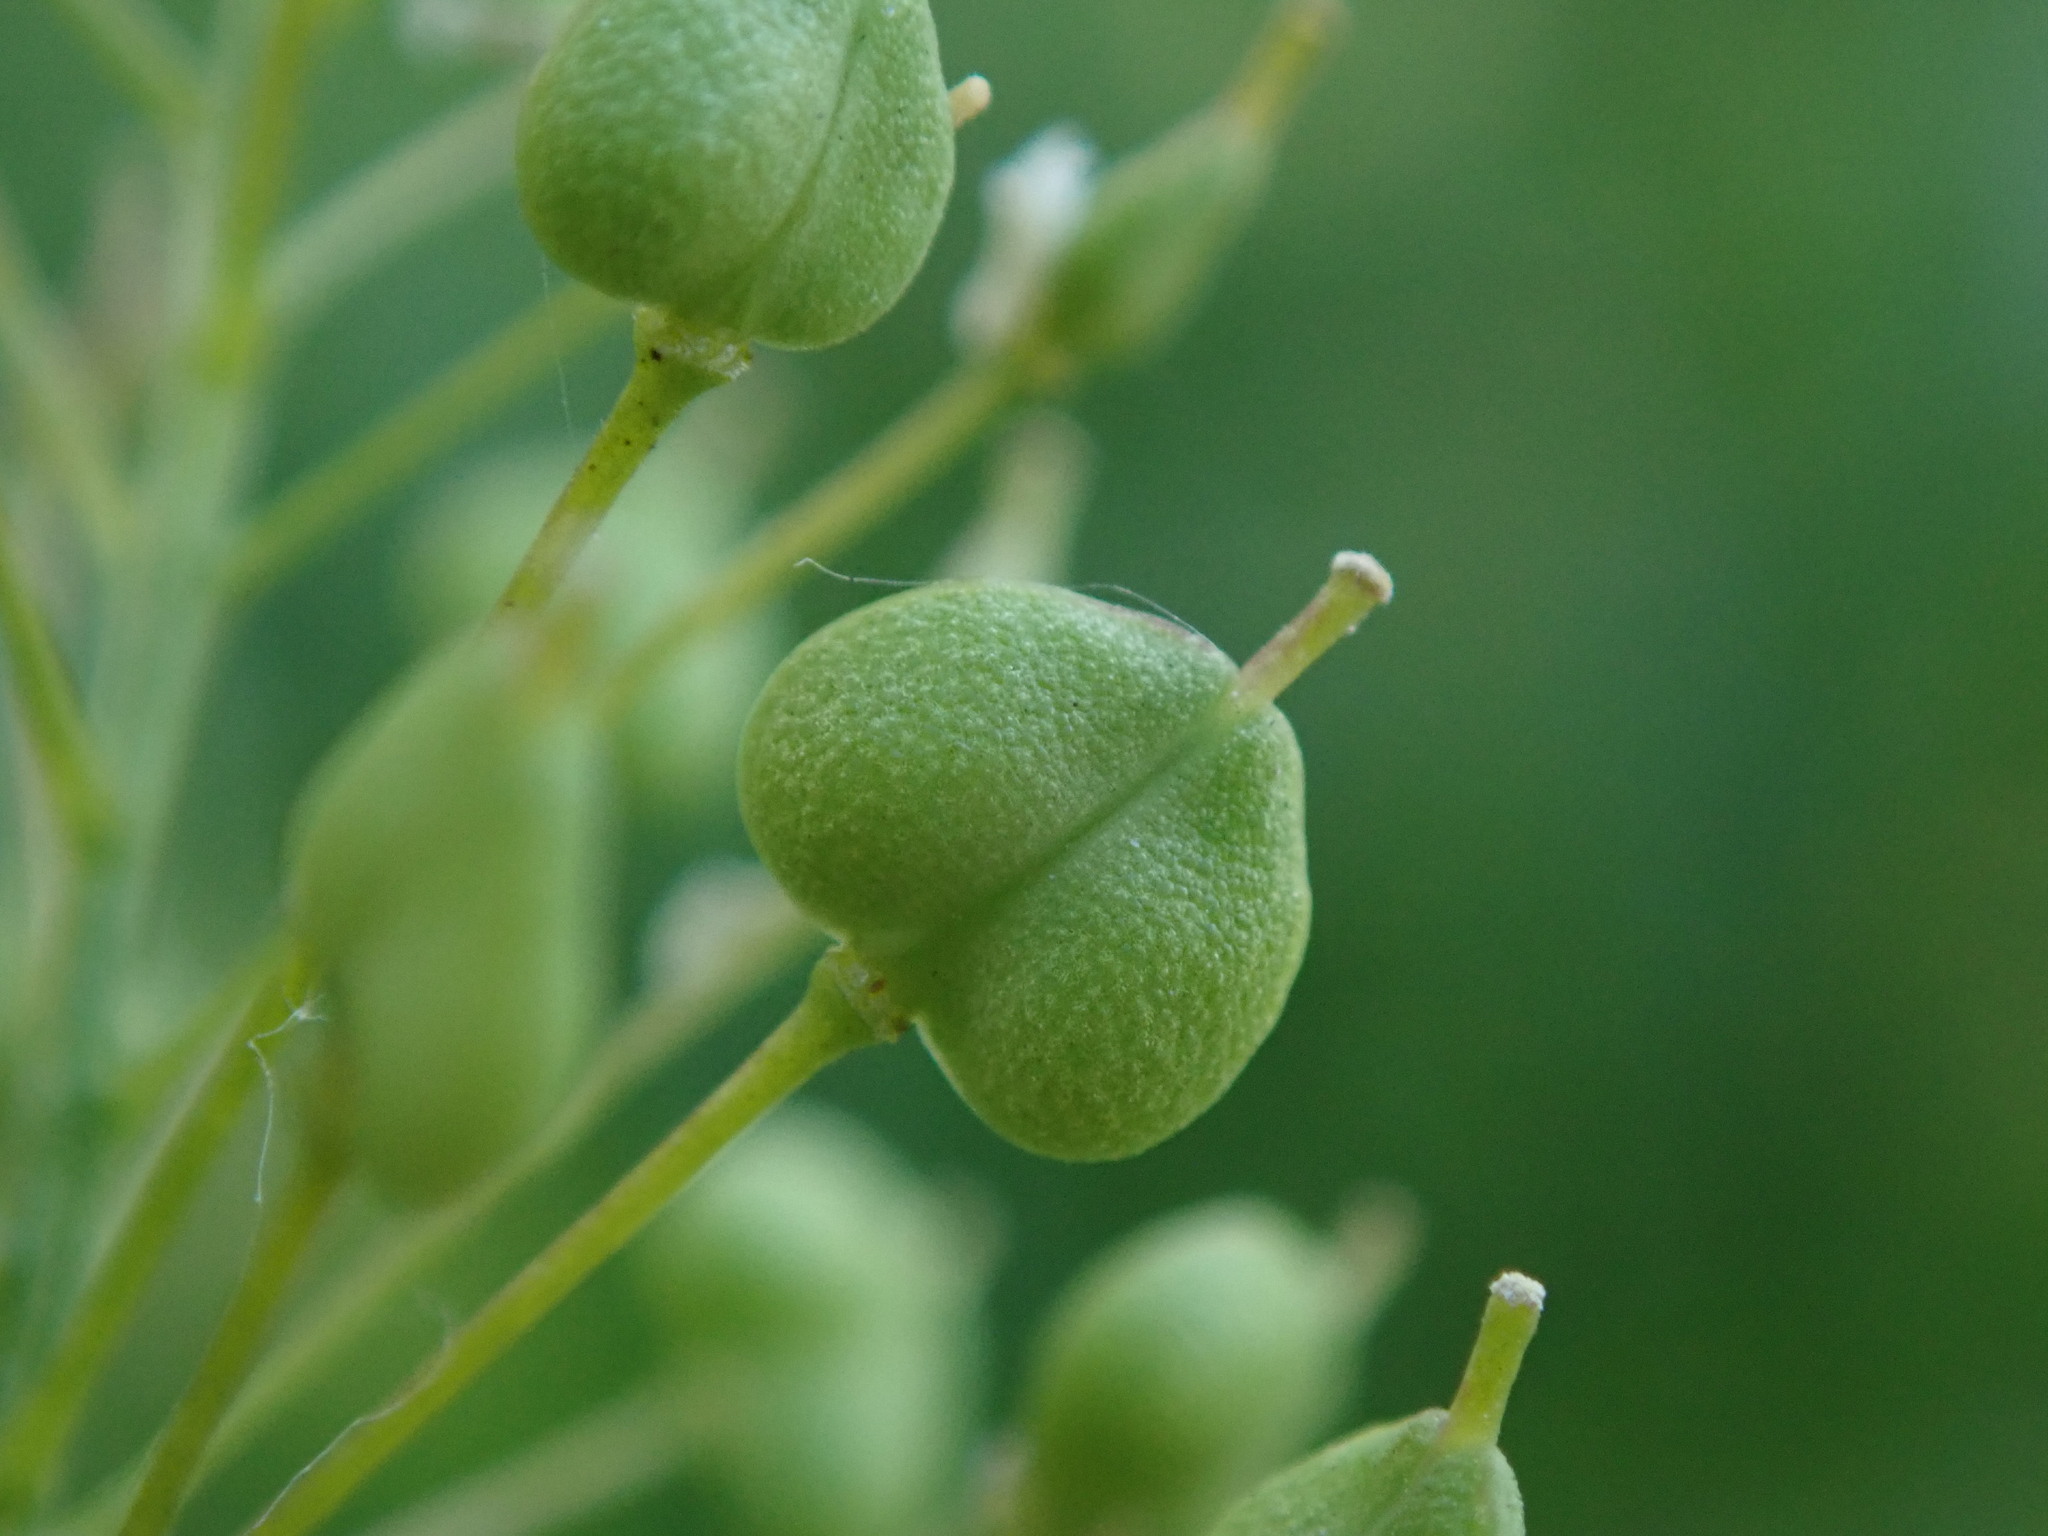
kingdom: Plantae
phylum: Tracheophyta
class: Magnoliopsida
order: Brassicales
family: Brassicaceae
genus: Lepidium
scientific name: Lepidium draba
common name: Hoary cress
